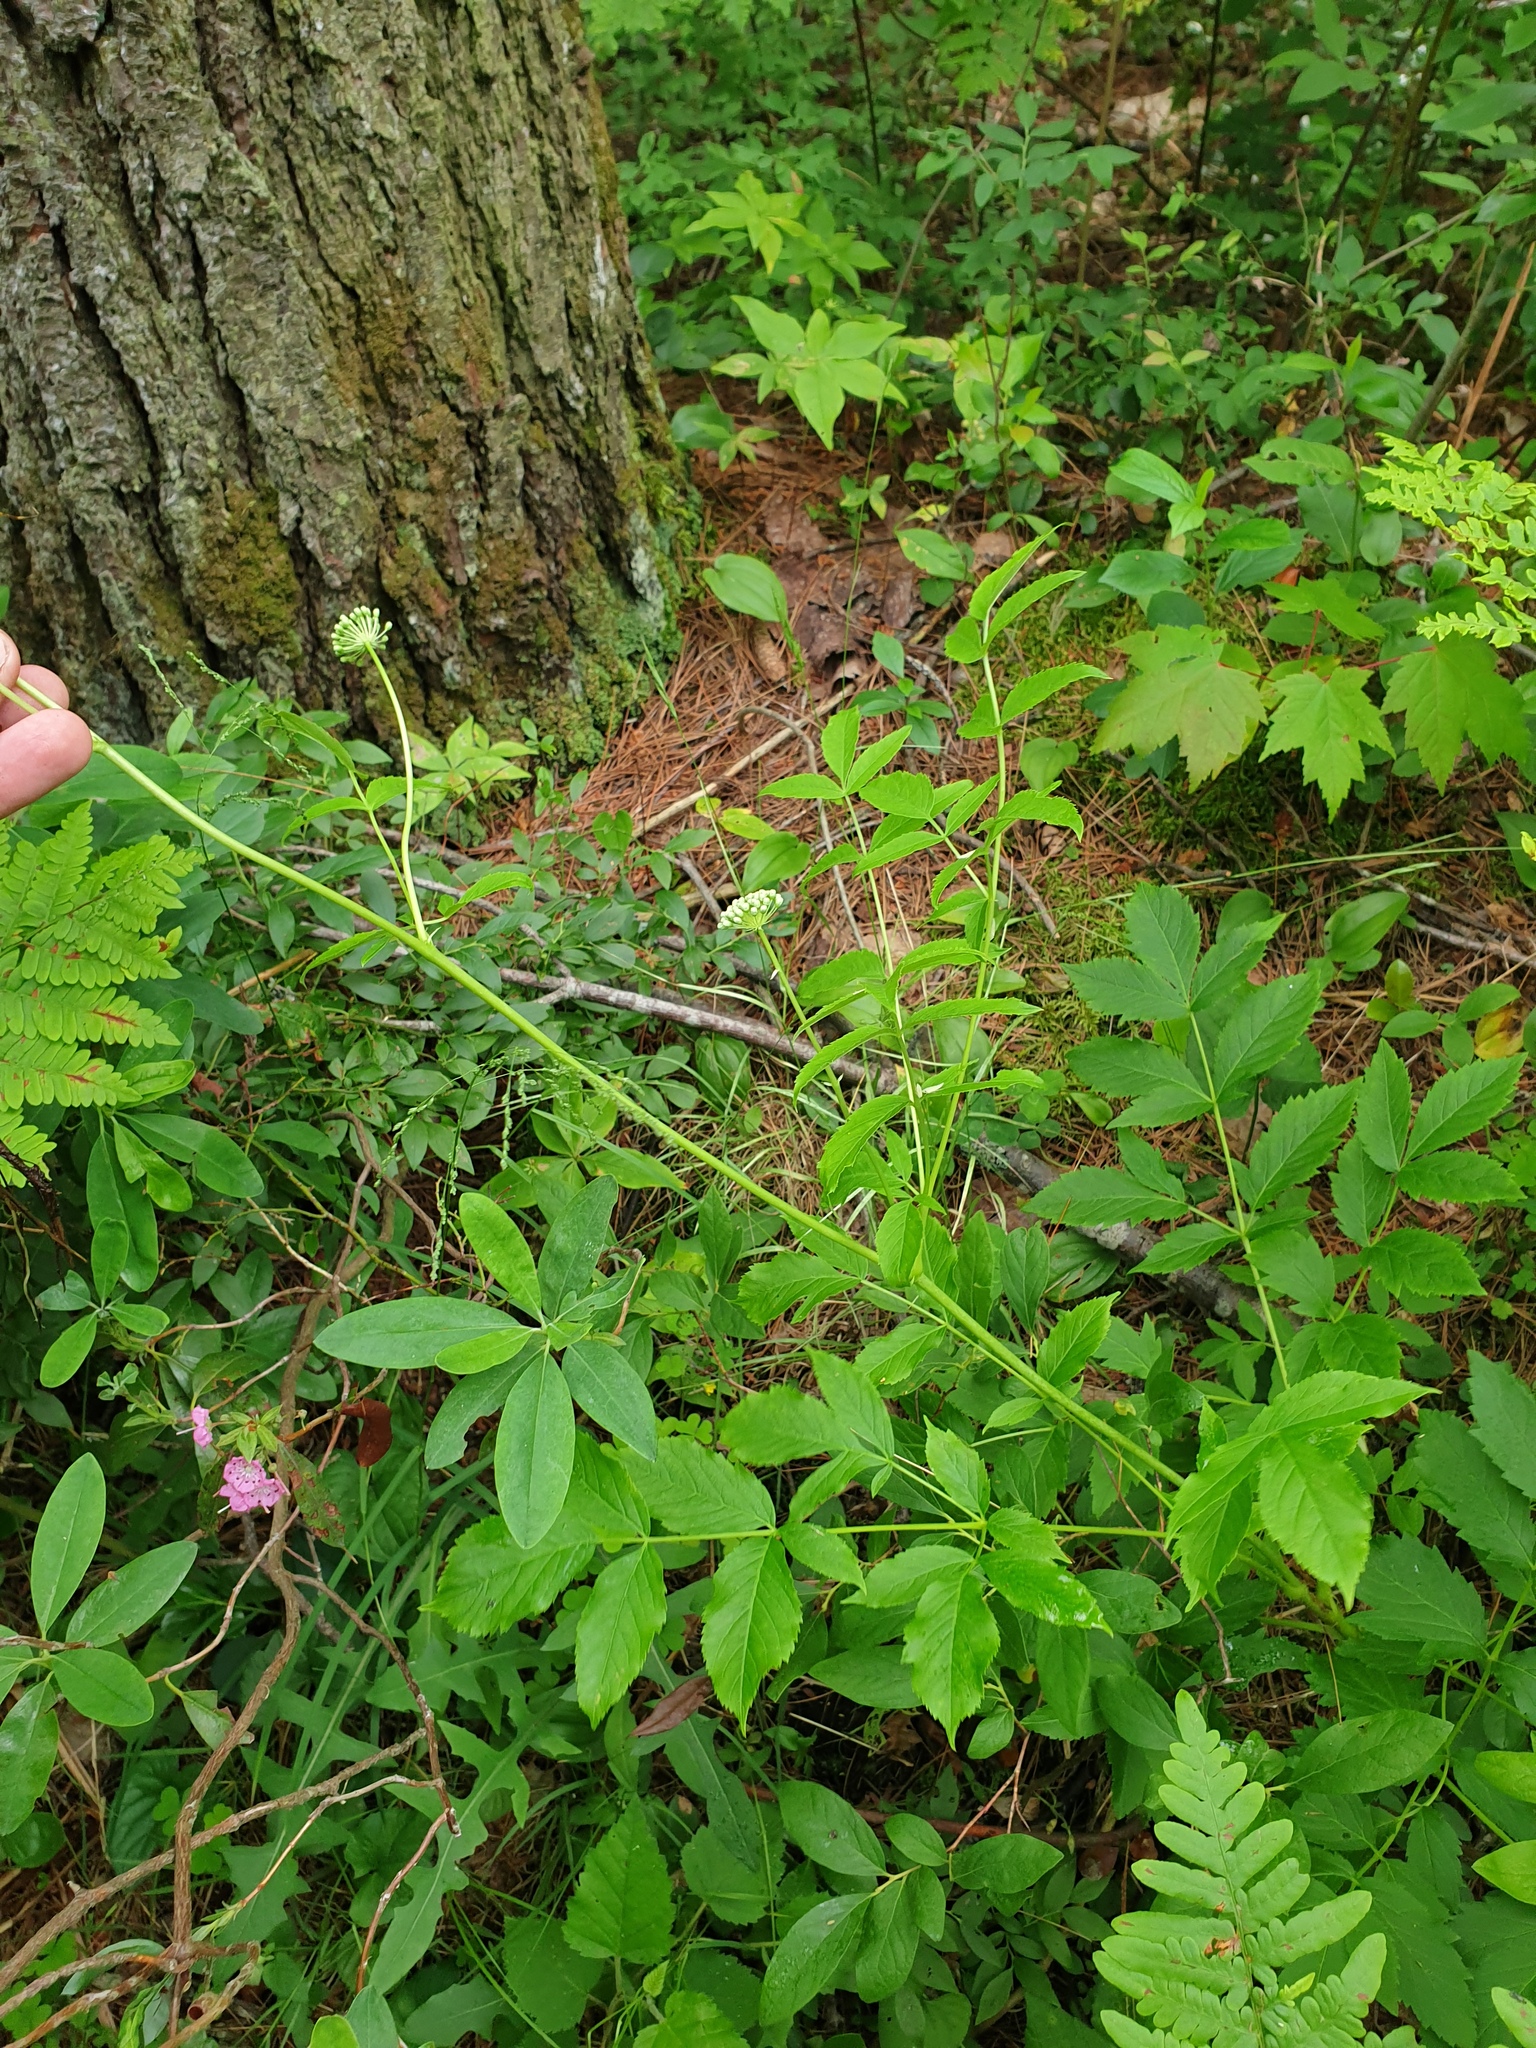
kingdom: Plantae
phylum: Tracheophyta
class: Magnoliopsida
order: Apiales
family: Araliaceae
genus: Aralia
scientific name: Aralia hispida
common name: Bristly sarsaparilla
